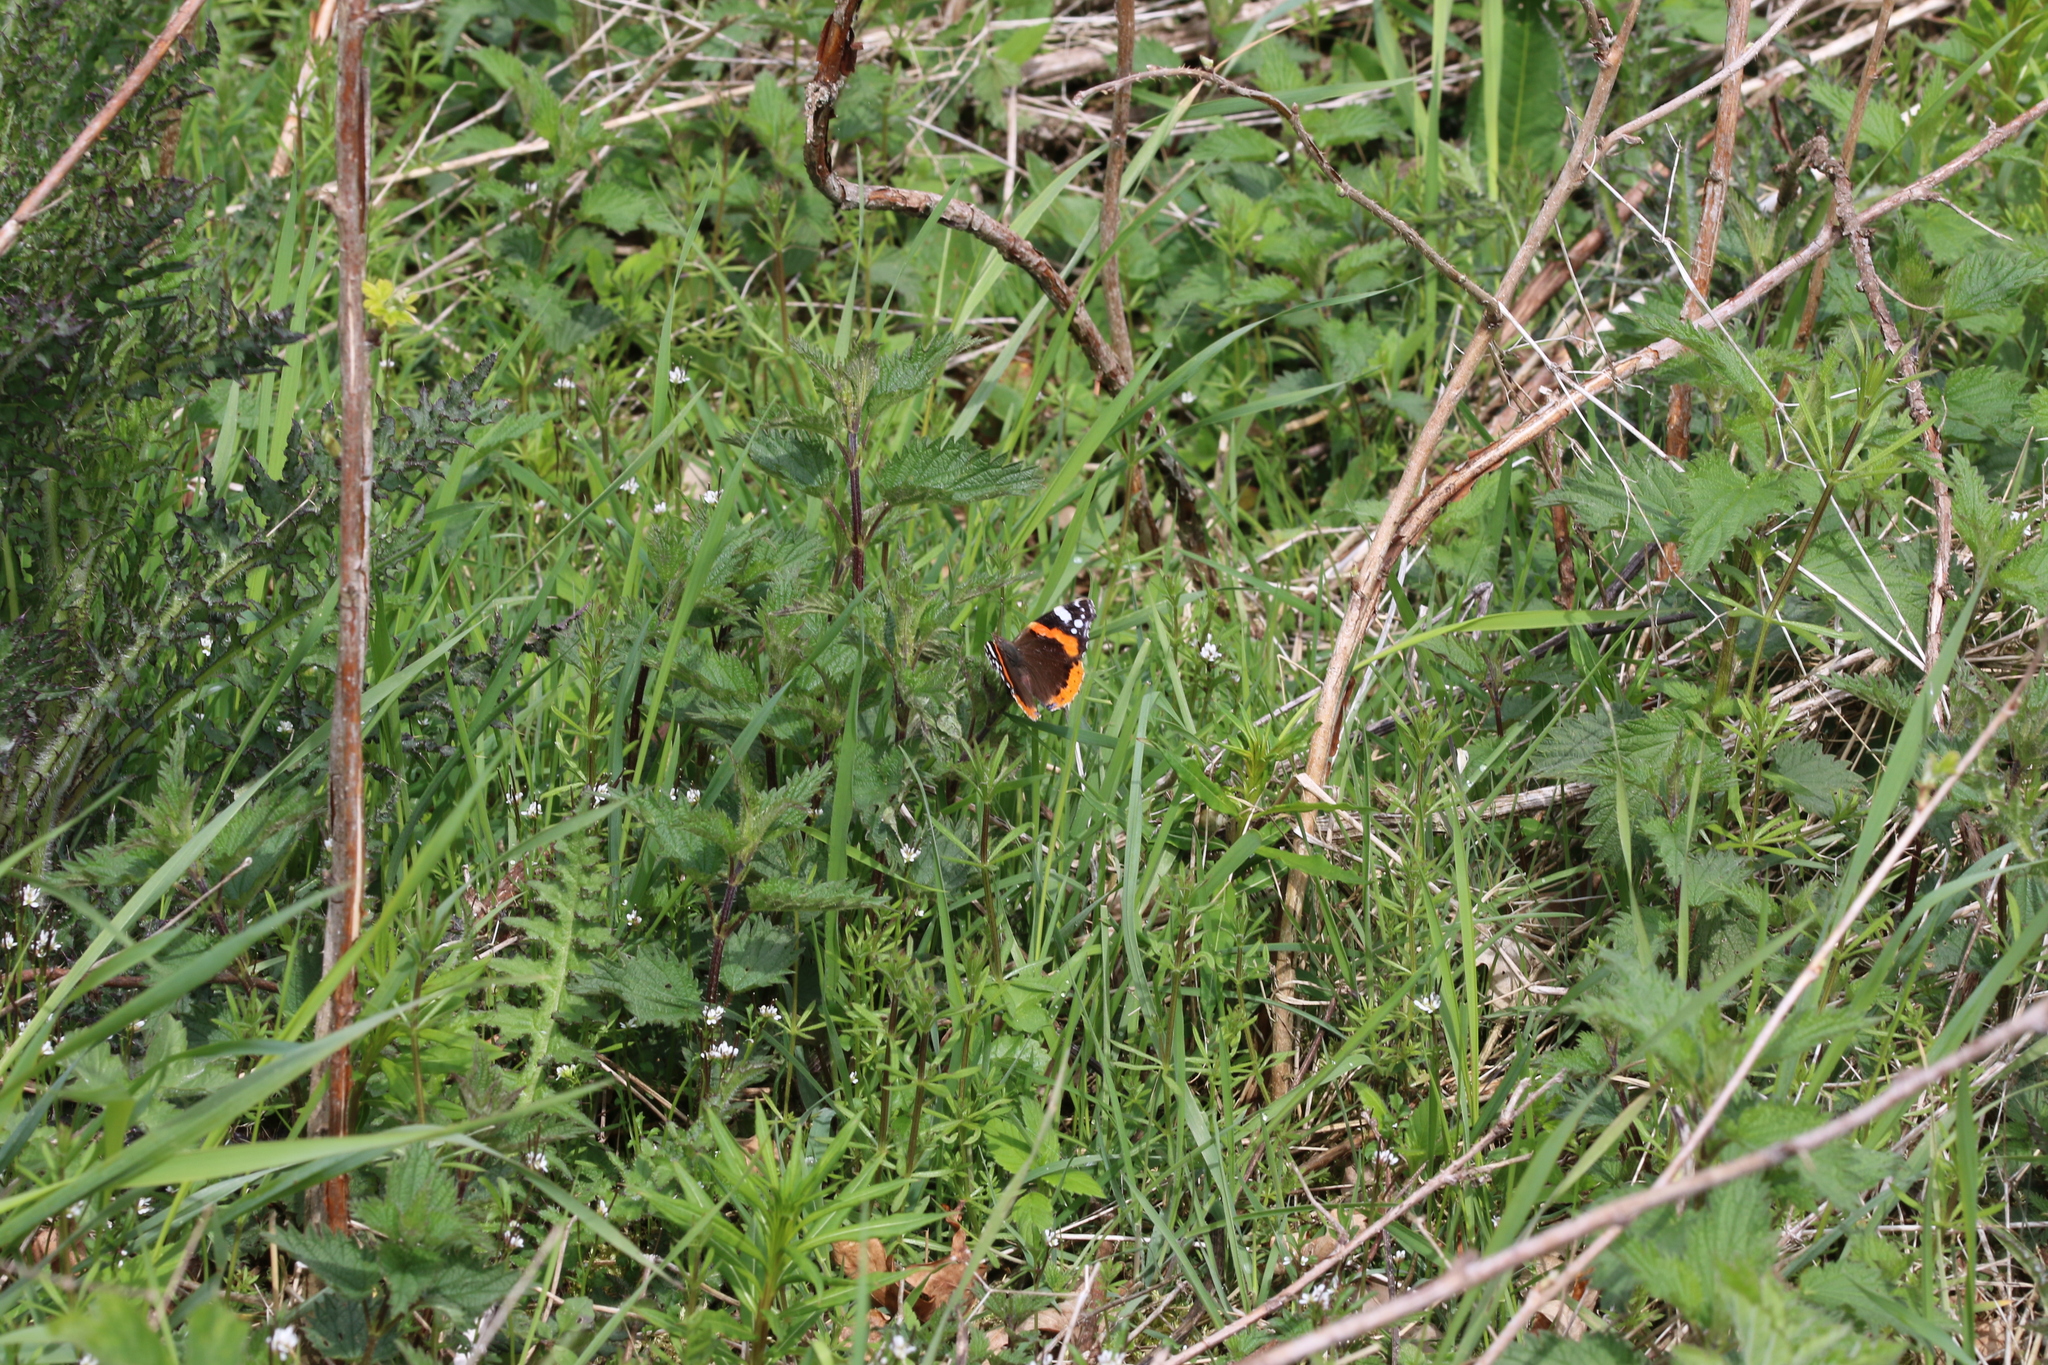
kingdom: Animalia
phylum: Arthropoda
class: Insecta
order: Lepidoptera
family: Nymphalidae
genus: Vanessa
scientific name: Vanessa atalanta
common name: Red admiral
